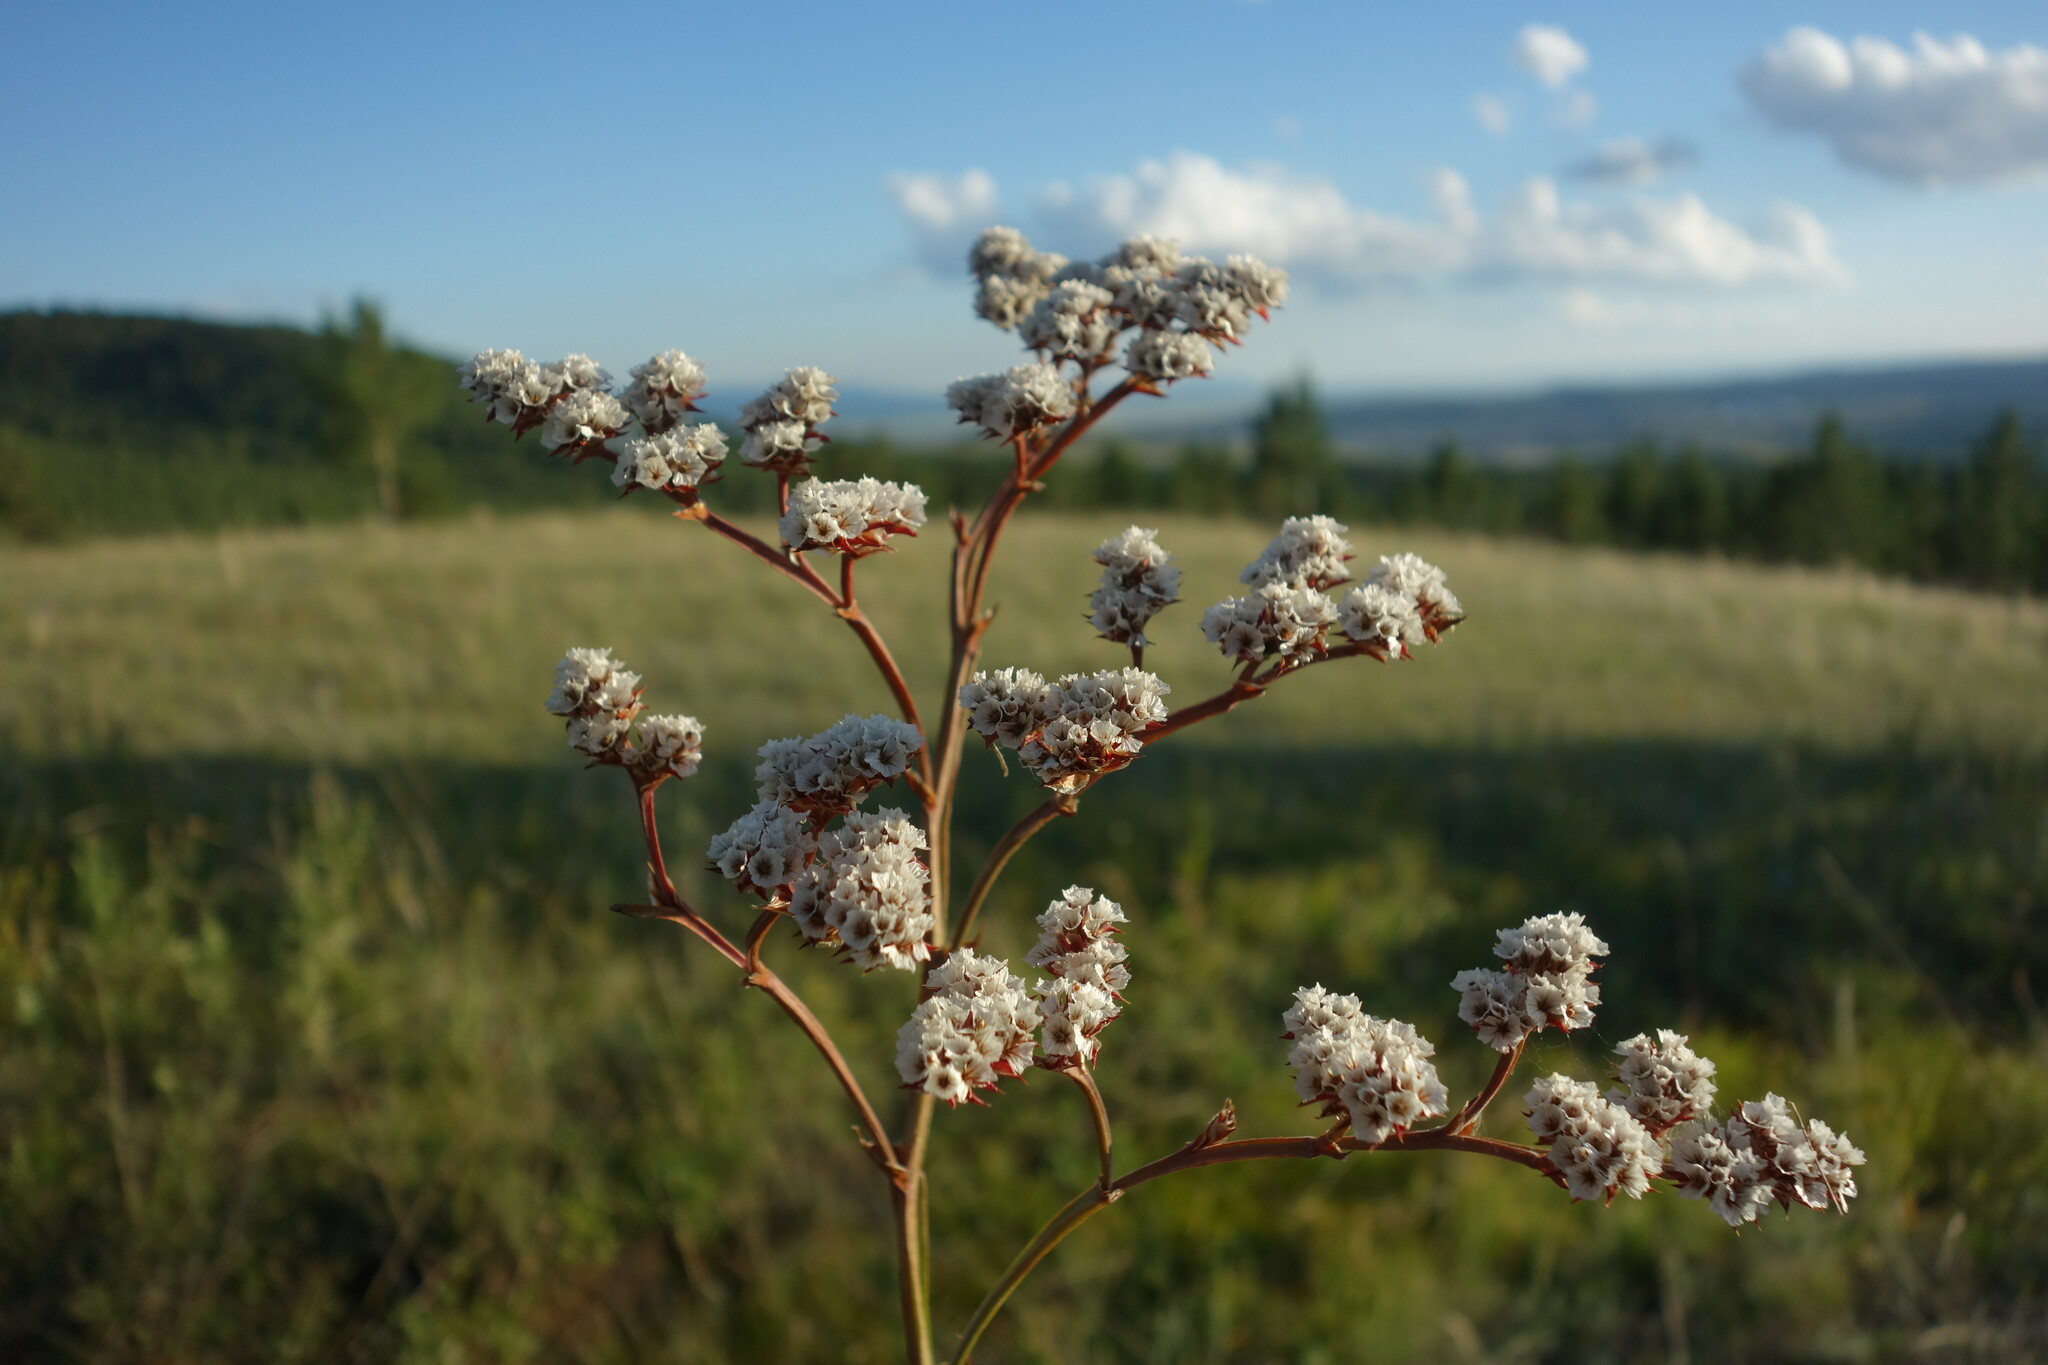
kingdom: Plantae
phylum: Tracheophyta
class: Magnoliopsida
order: Caryophyllales
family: Plumbaginaceae
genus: Goniolimon
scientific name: Goniolimon speciosum
